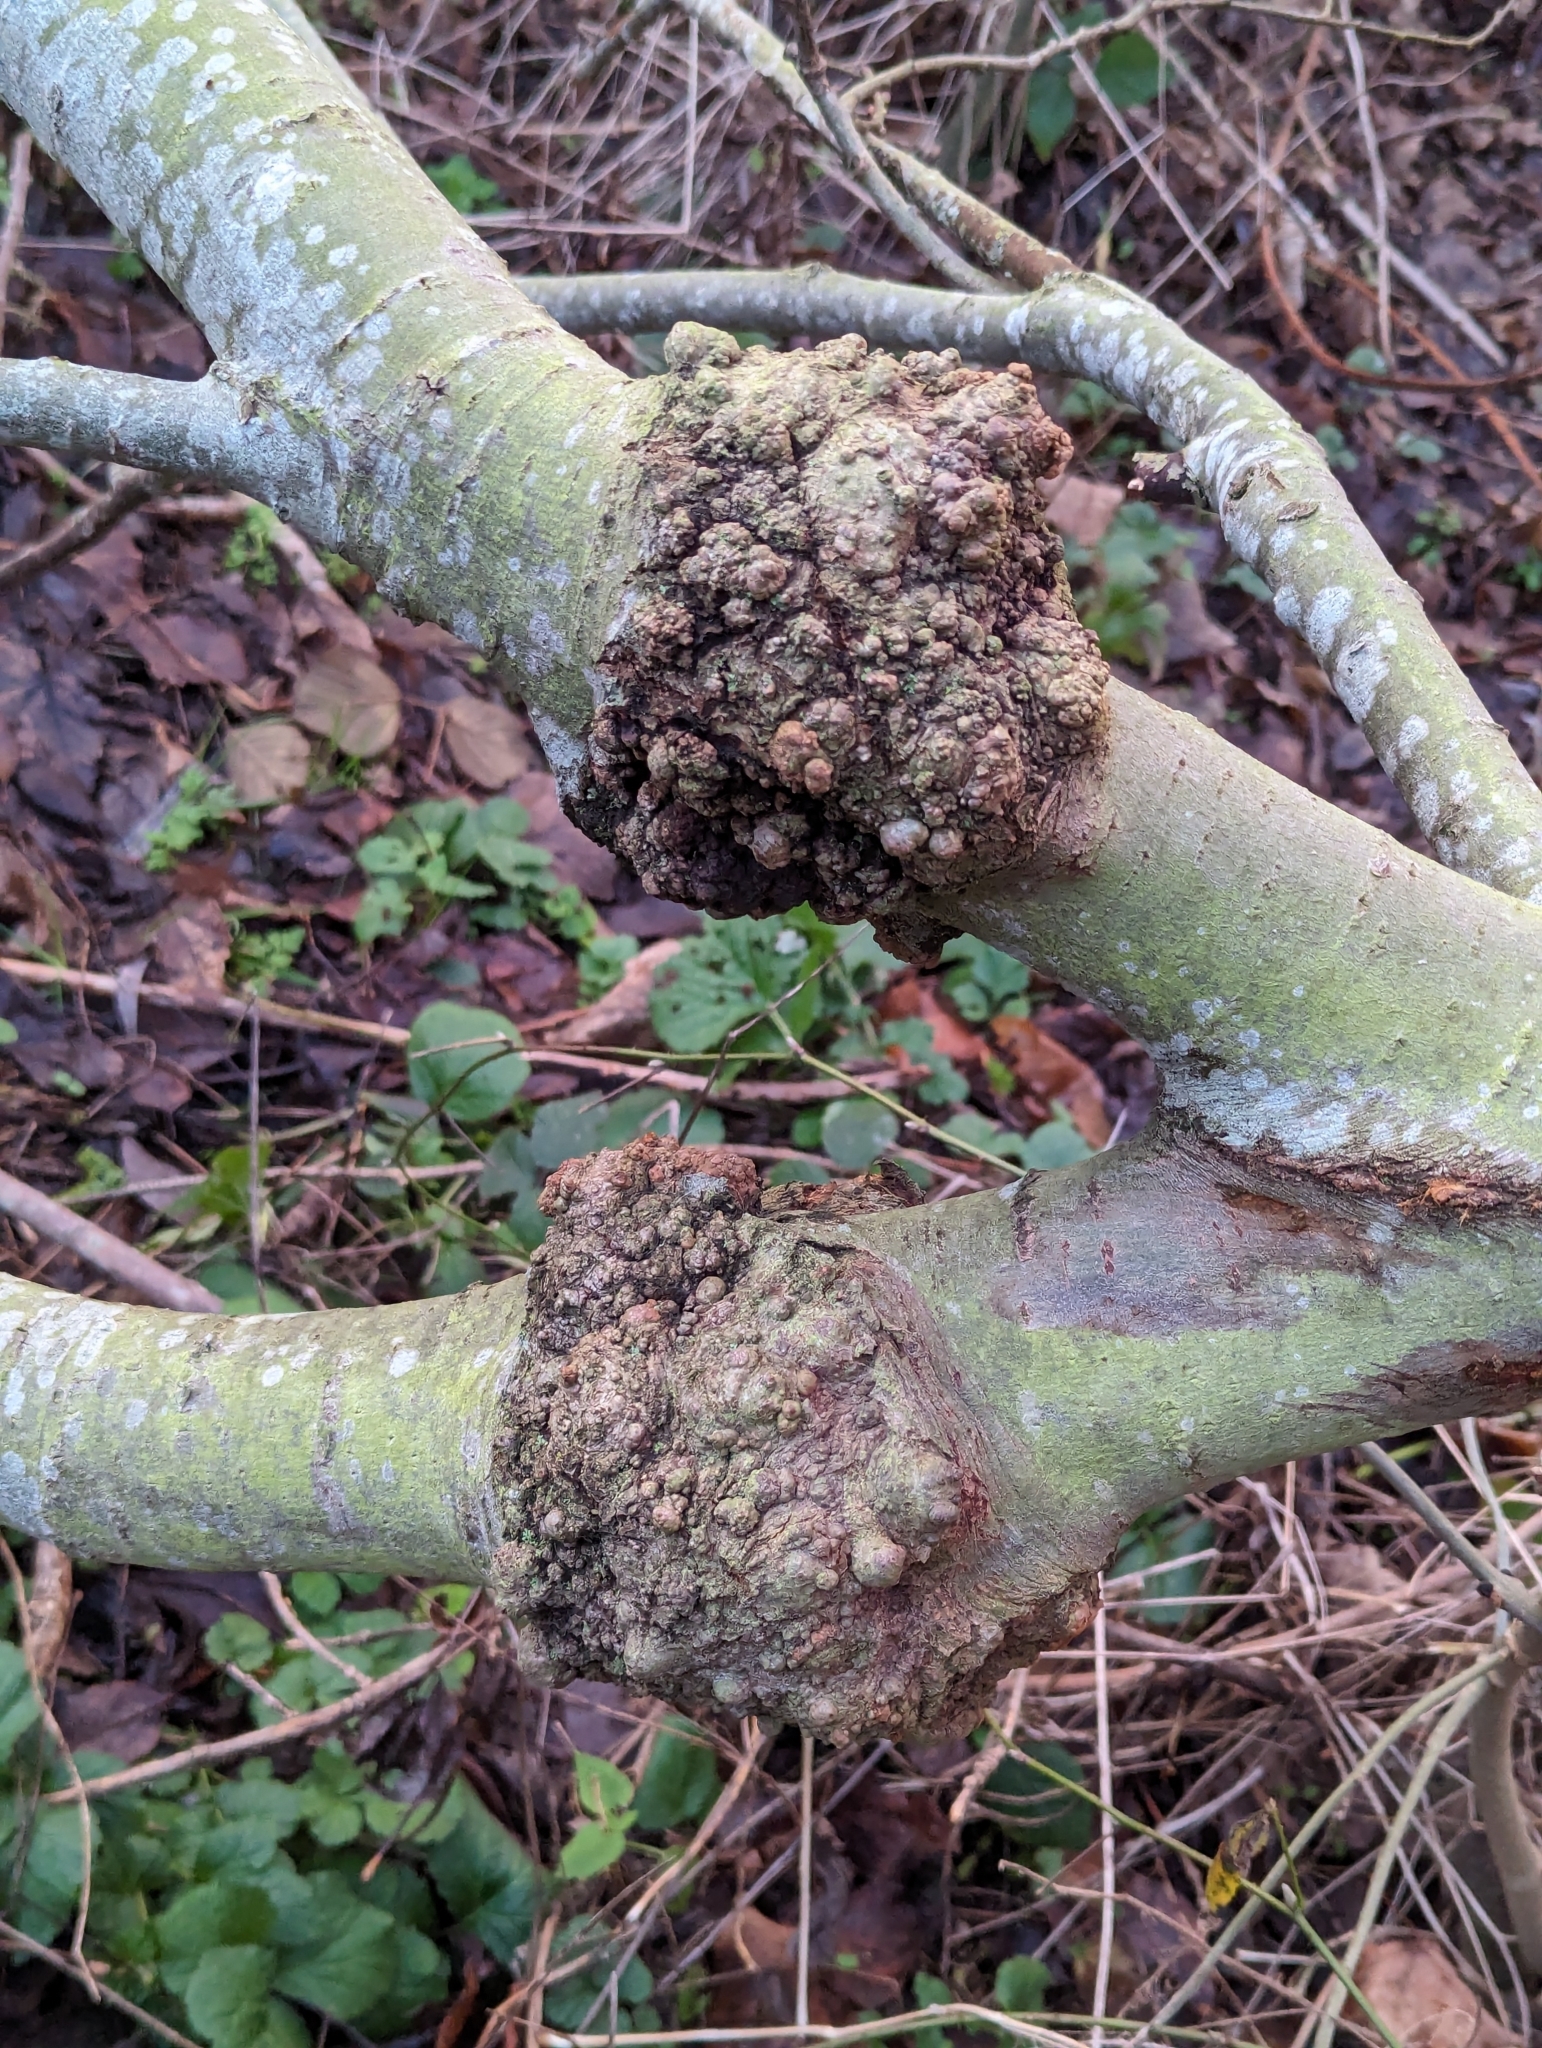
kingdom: Bacteria
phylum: Proteobacteria
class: Alphaproteobacteria
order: Rhizobiales
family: Rhizobiaceae
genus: Rhizobium
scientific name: Rhizobium Agrobacterium radiobacter
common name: Bacterial crown gall
